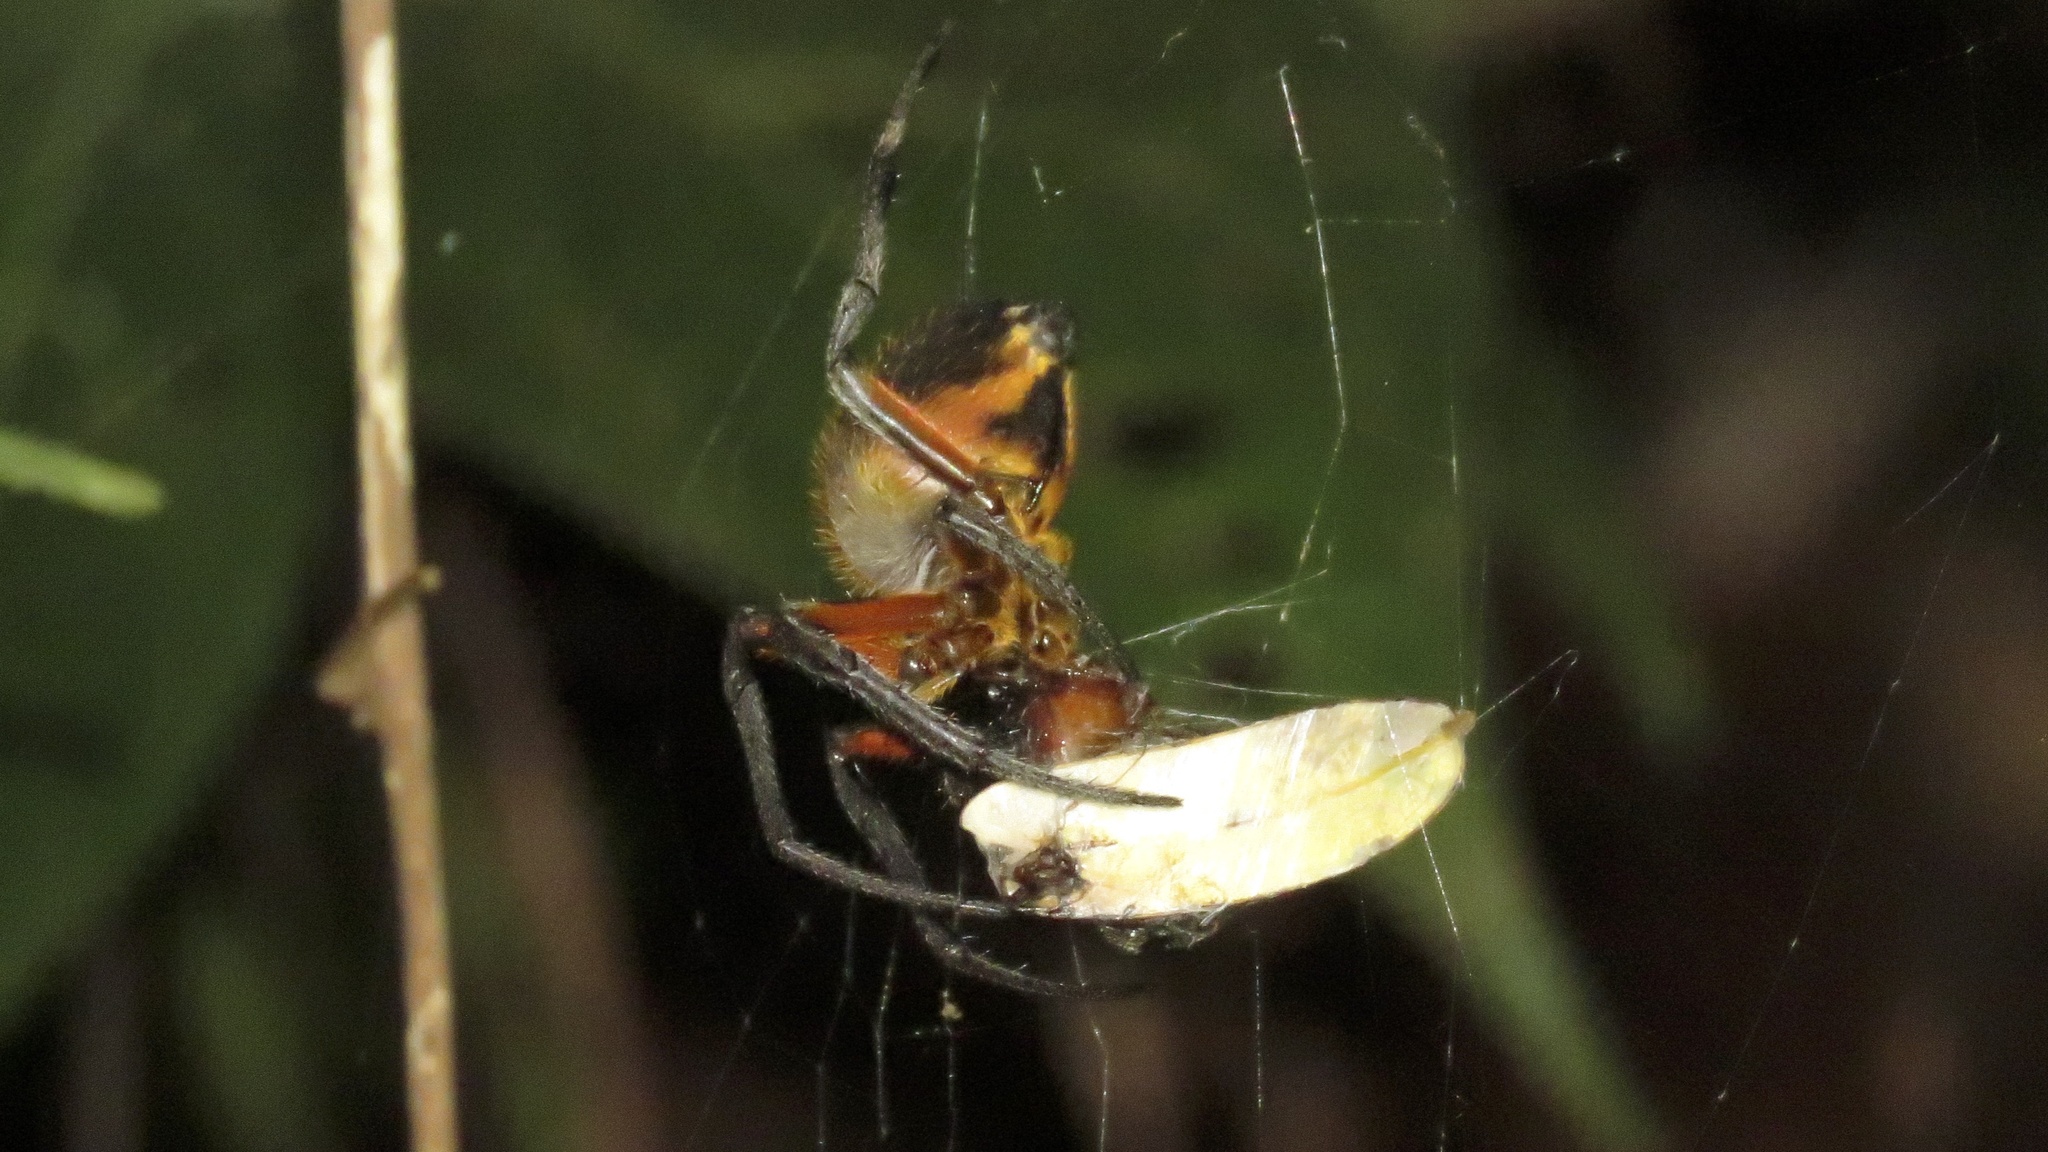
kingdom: Animalia
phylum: Arthropoda
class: Arachnida
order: Araneae
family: Araneidae
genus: Eriophora
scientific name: Eriophora fuliginea
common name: Orb weavers
